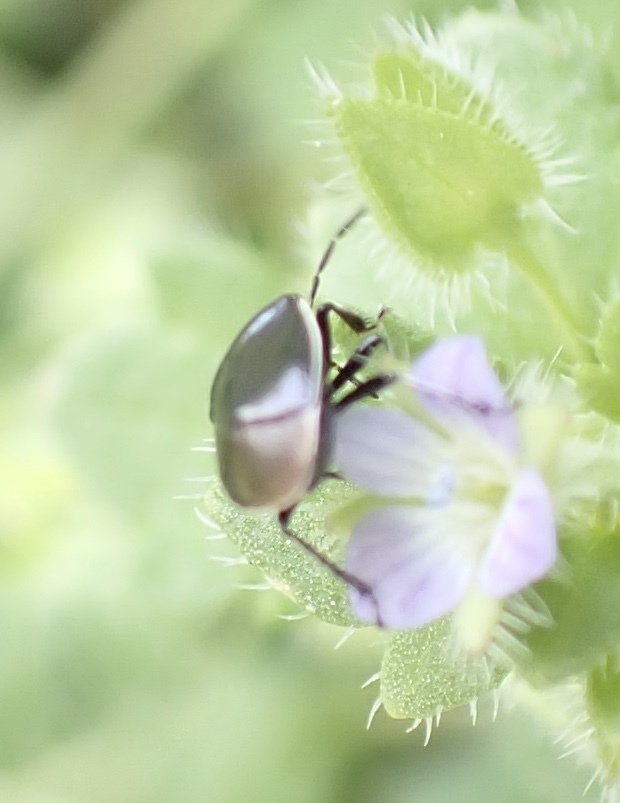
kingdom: Animalia
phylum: Arthropoda
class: Insecta
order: Hemiptera
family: Cydnidae
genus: Sehirus
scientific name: Sehirus cinctus
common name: White-margined burrower bug
